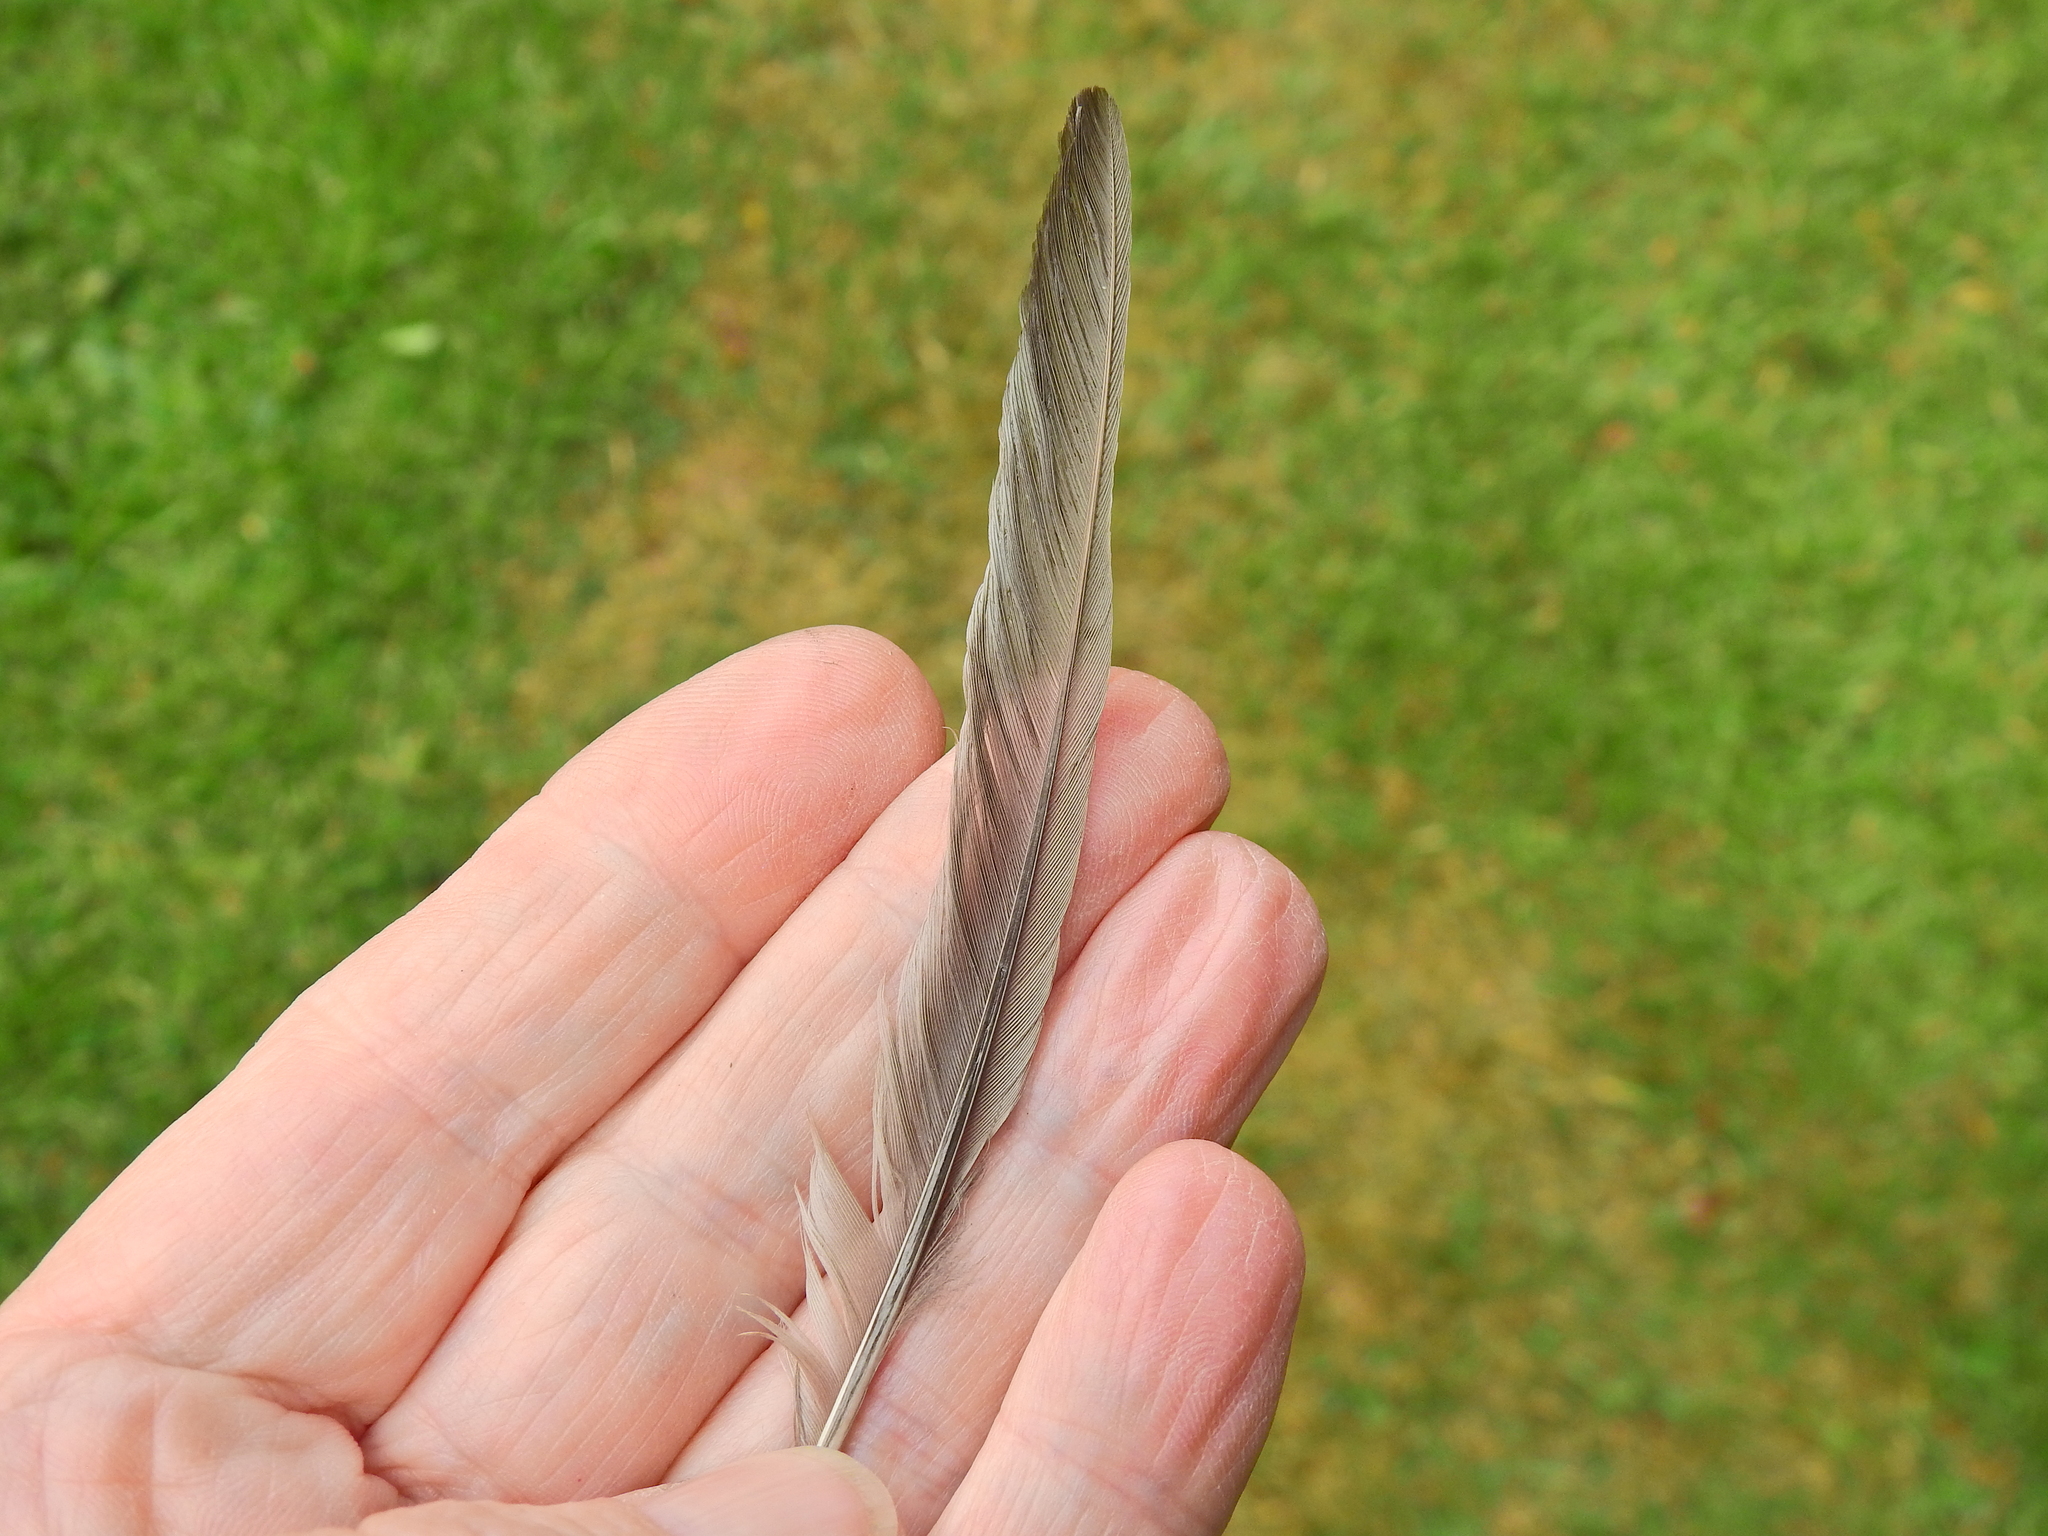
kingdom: Animalia
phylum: Chordata
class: Aves
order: Passeriformes
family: Turdidae
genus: Turdus
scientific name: Turdus philomelos
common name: Song thrush
